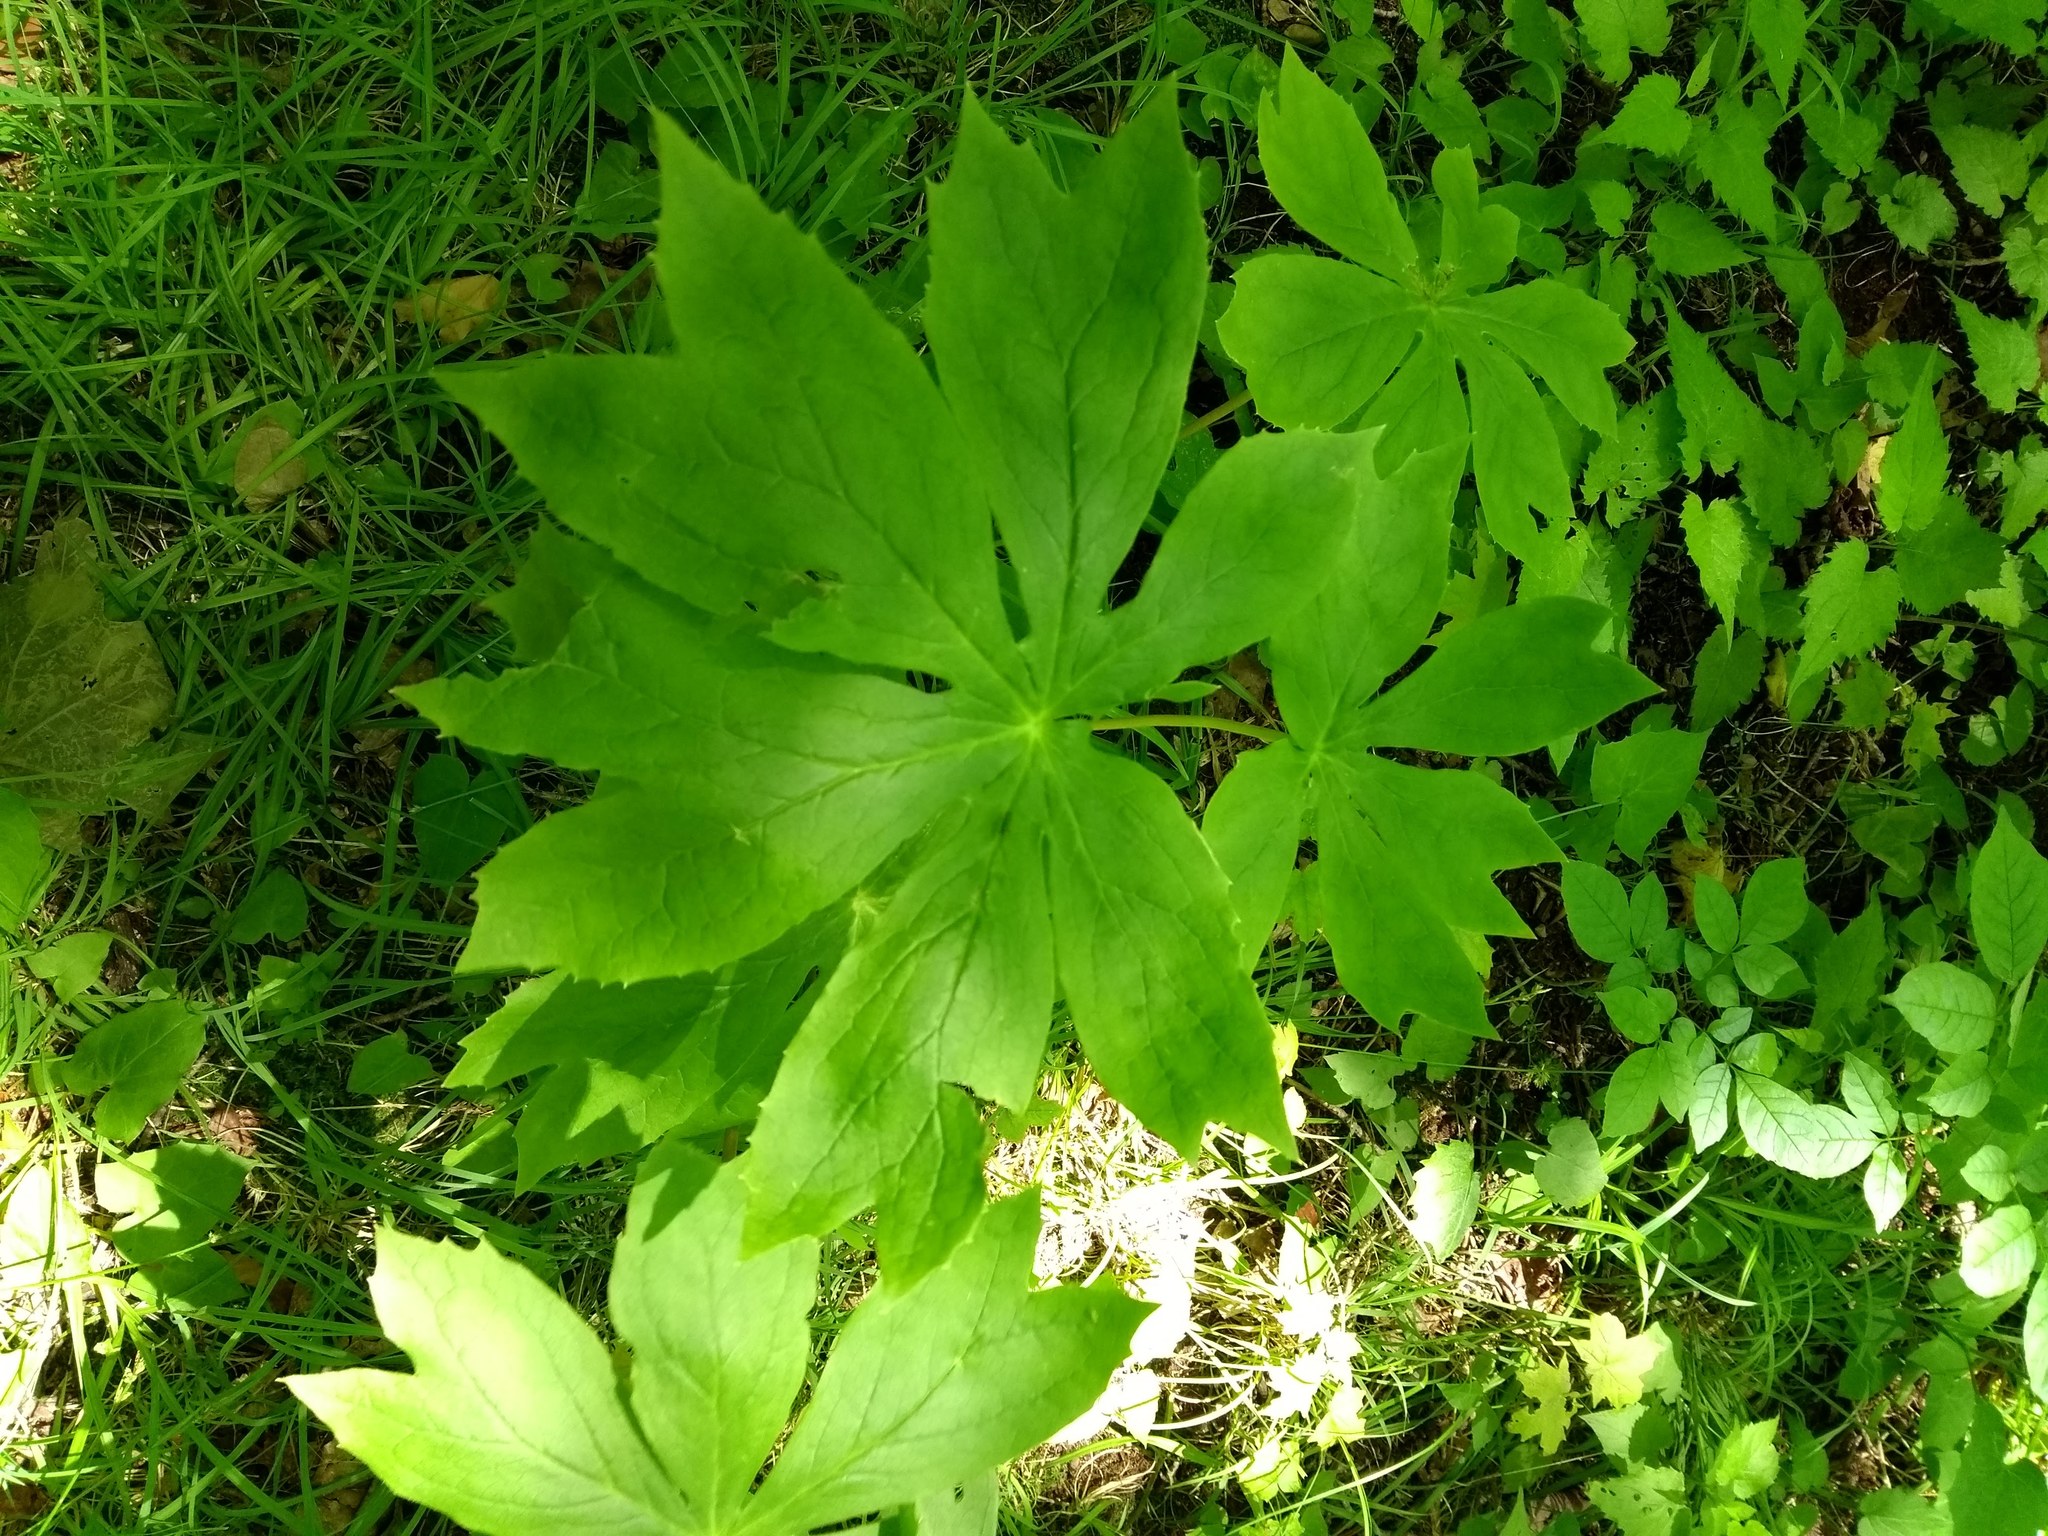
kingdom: Plantae
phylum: Tracheophyta
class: Magnoliopsida
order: Ranunculales
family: Berberidaceae
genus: Podophyllum
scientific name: Podophyllum peltatum
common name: Wild mandrake
